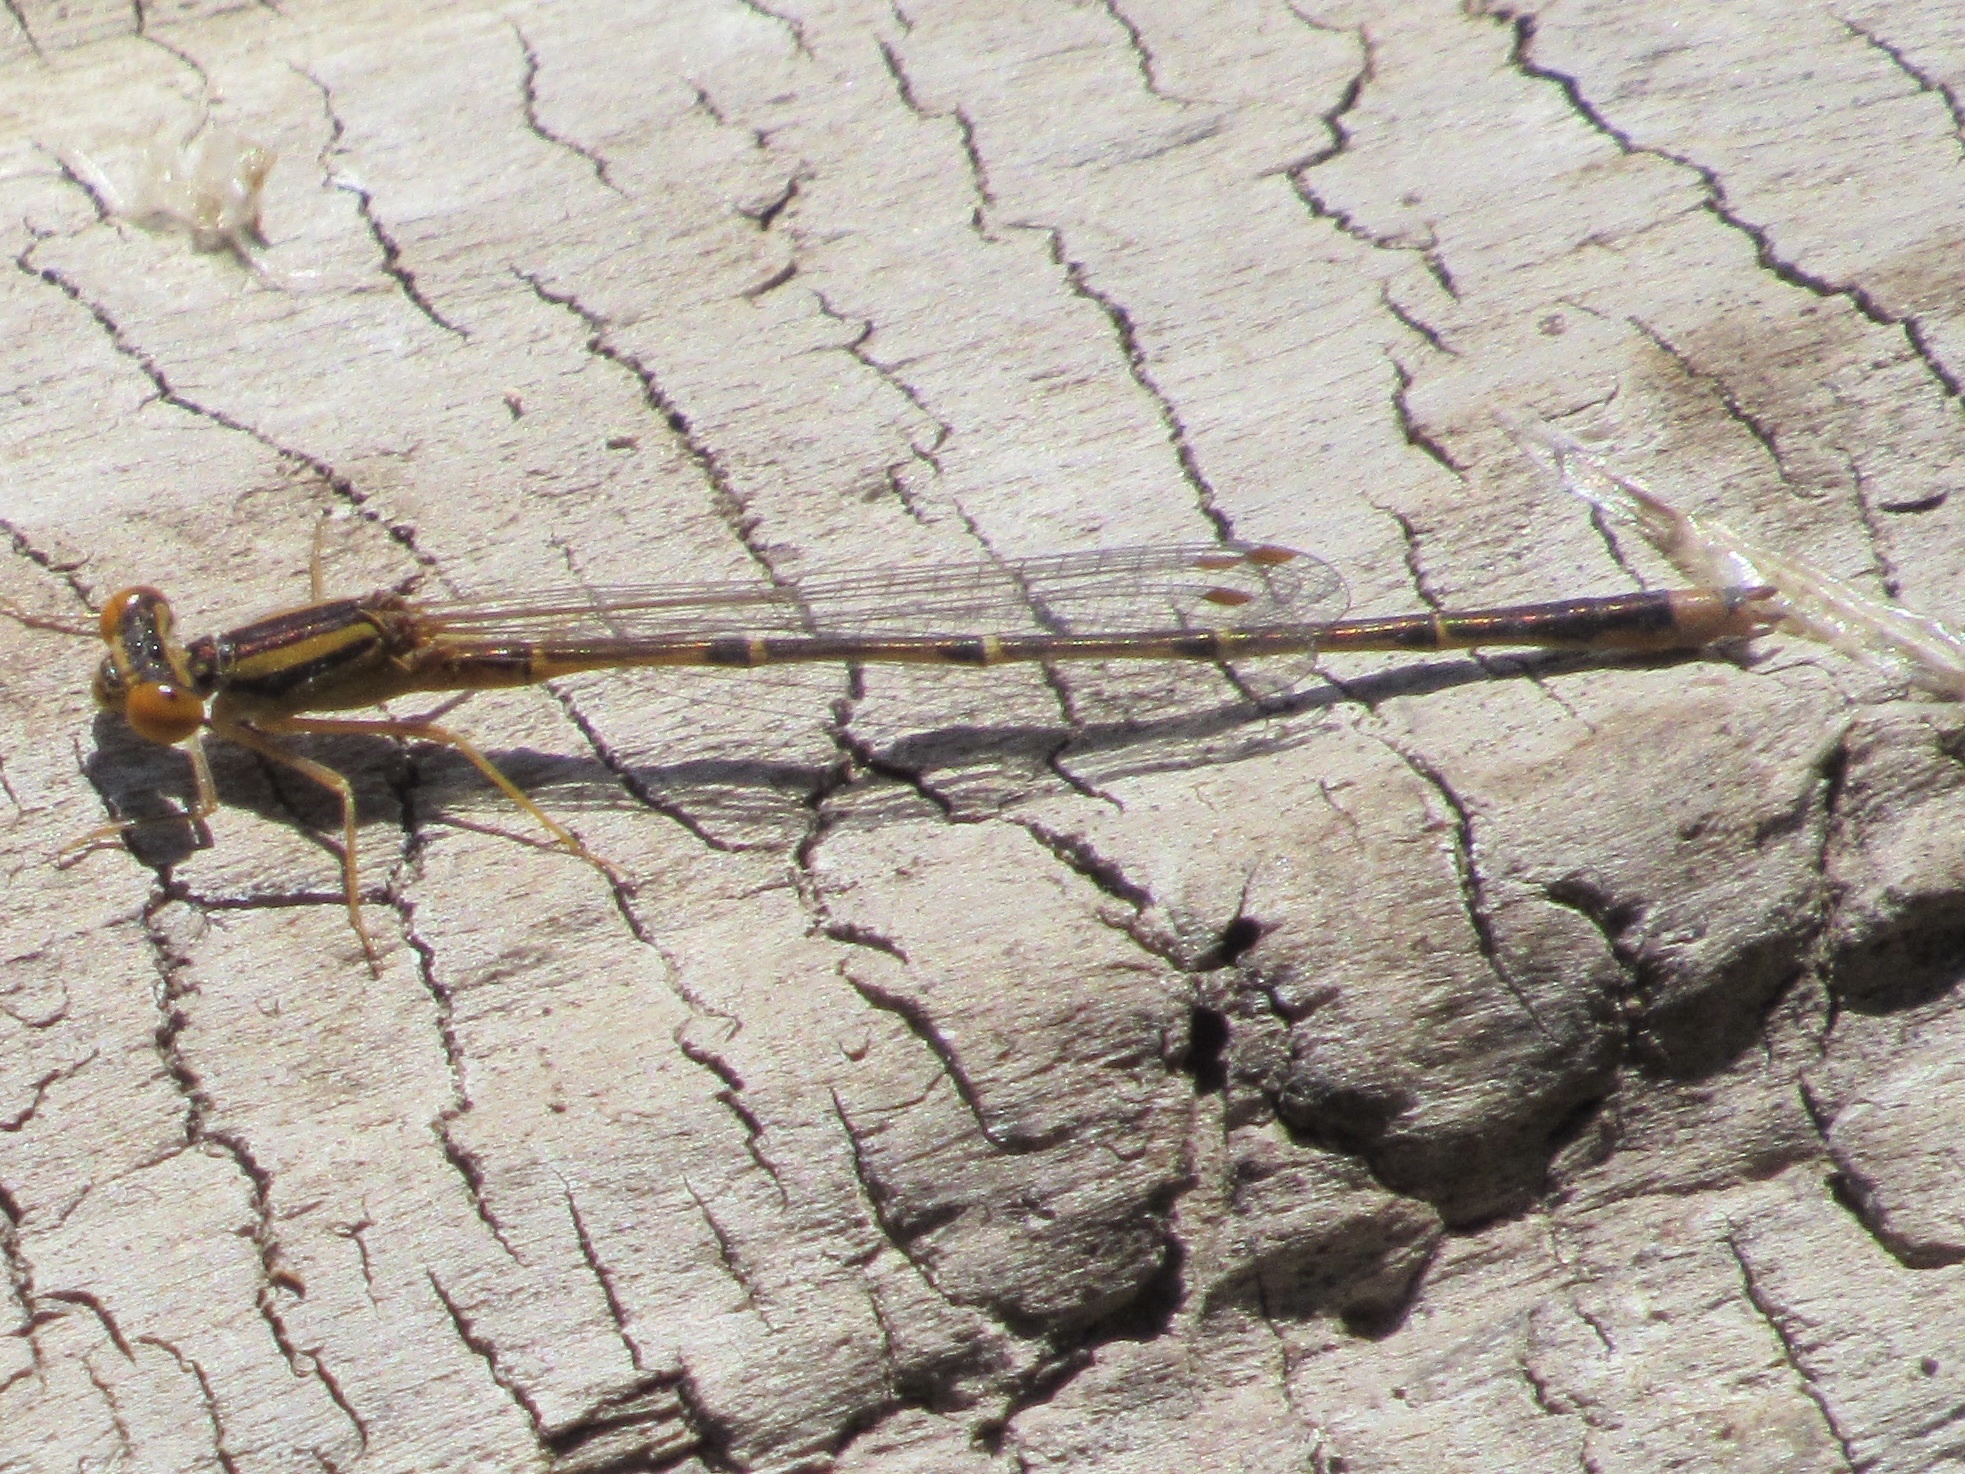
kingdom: Animalia
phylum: Arthropoda
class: Insecta
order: Odonata
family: Coenagrionidae
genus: Enallagma
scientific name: Enallagma signatum
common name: Orange bluet
